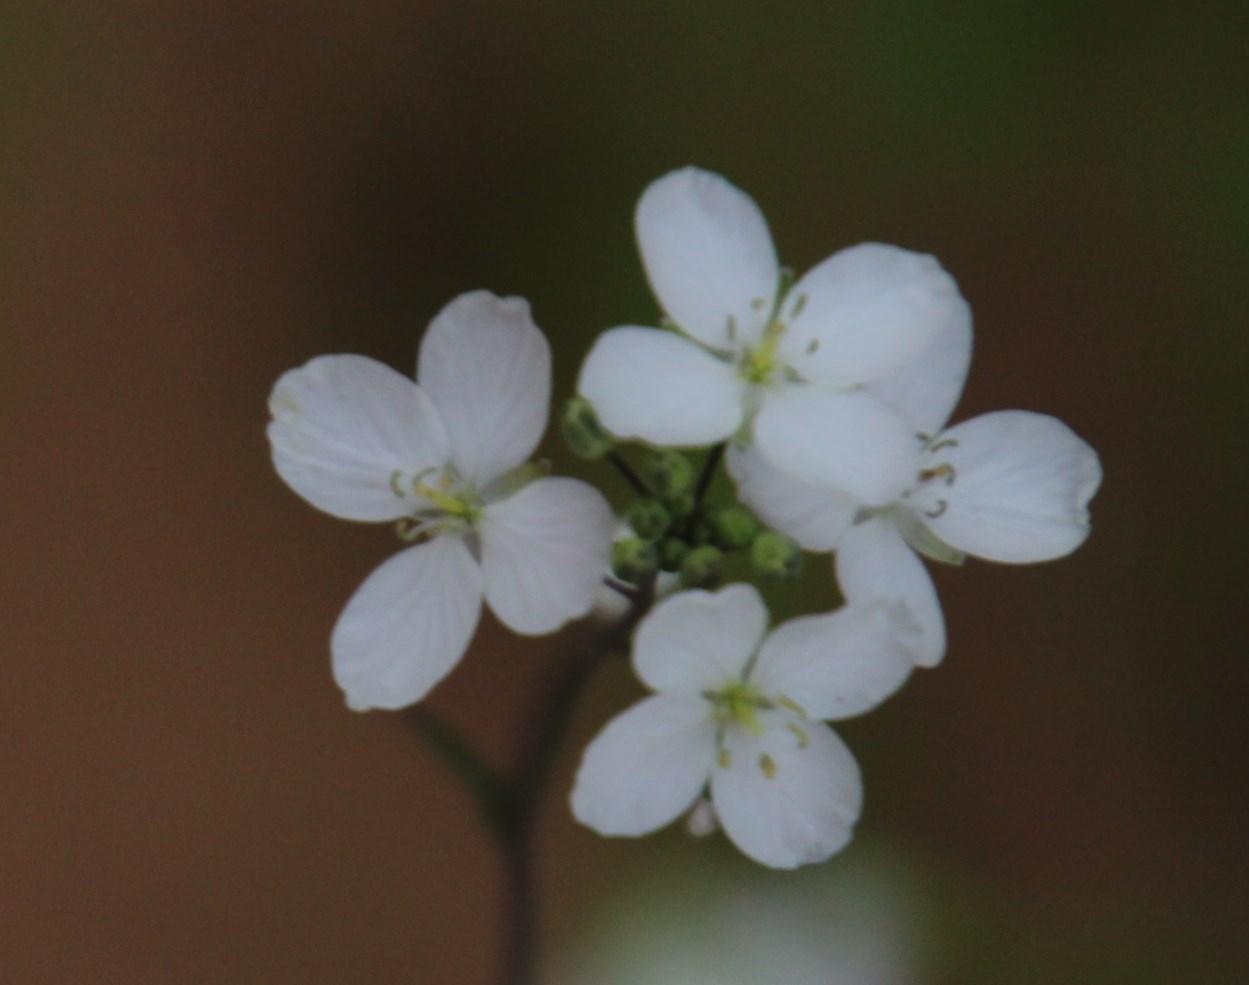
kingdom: Plantae
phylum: Tracheophyta
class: Magnoliopsida
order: Brassicales
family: Brassicaceae
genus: Heliophila
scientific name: Heliophila amplexicaulis
